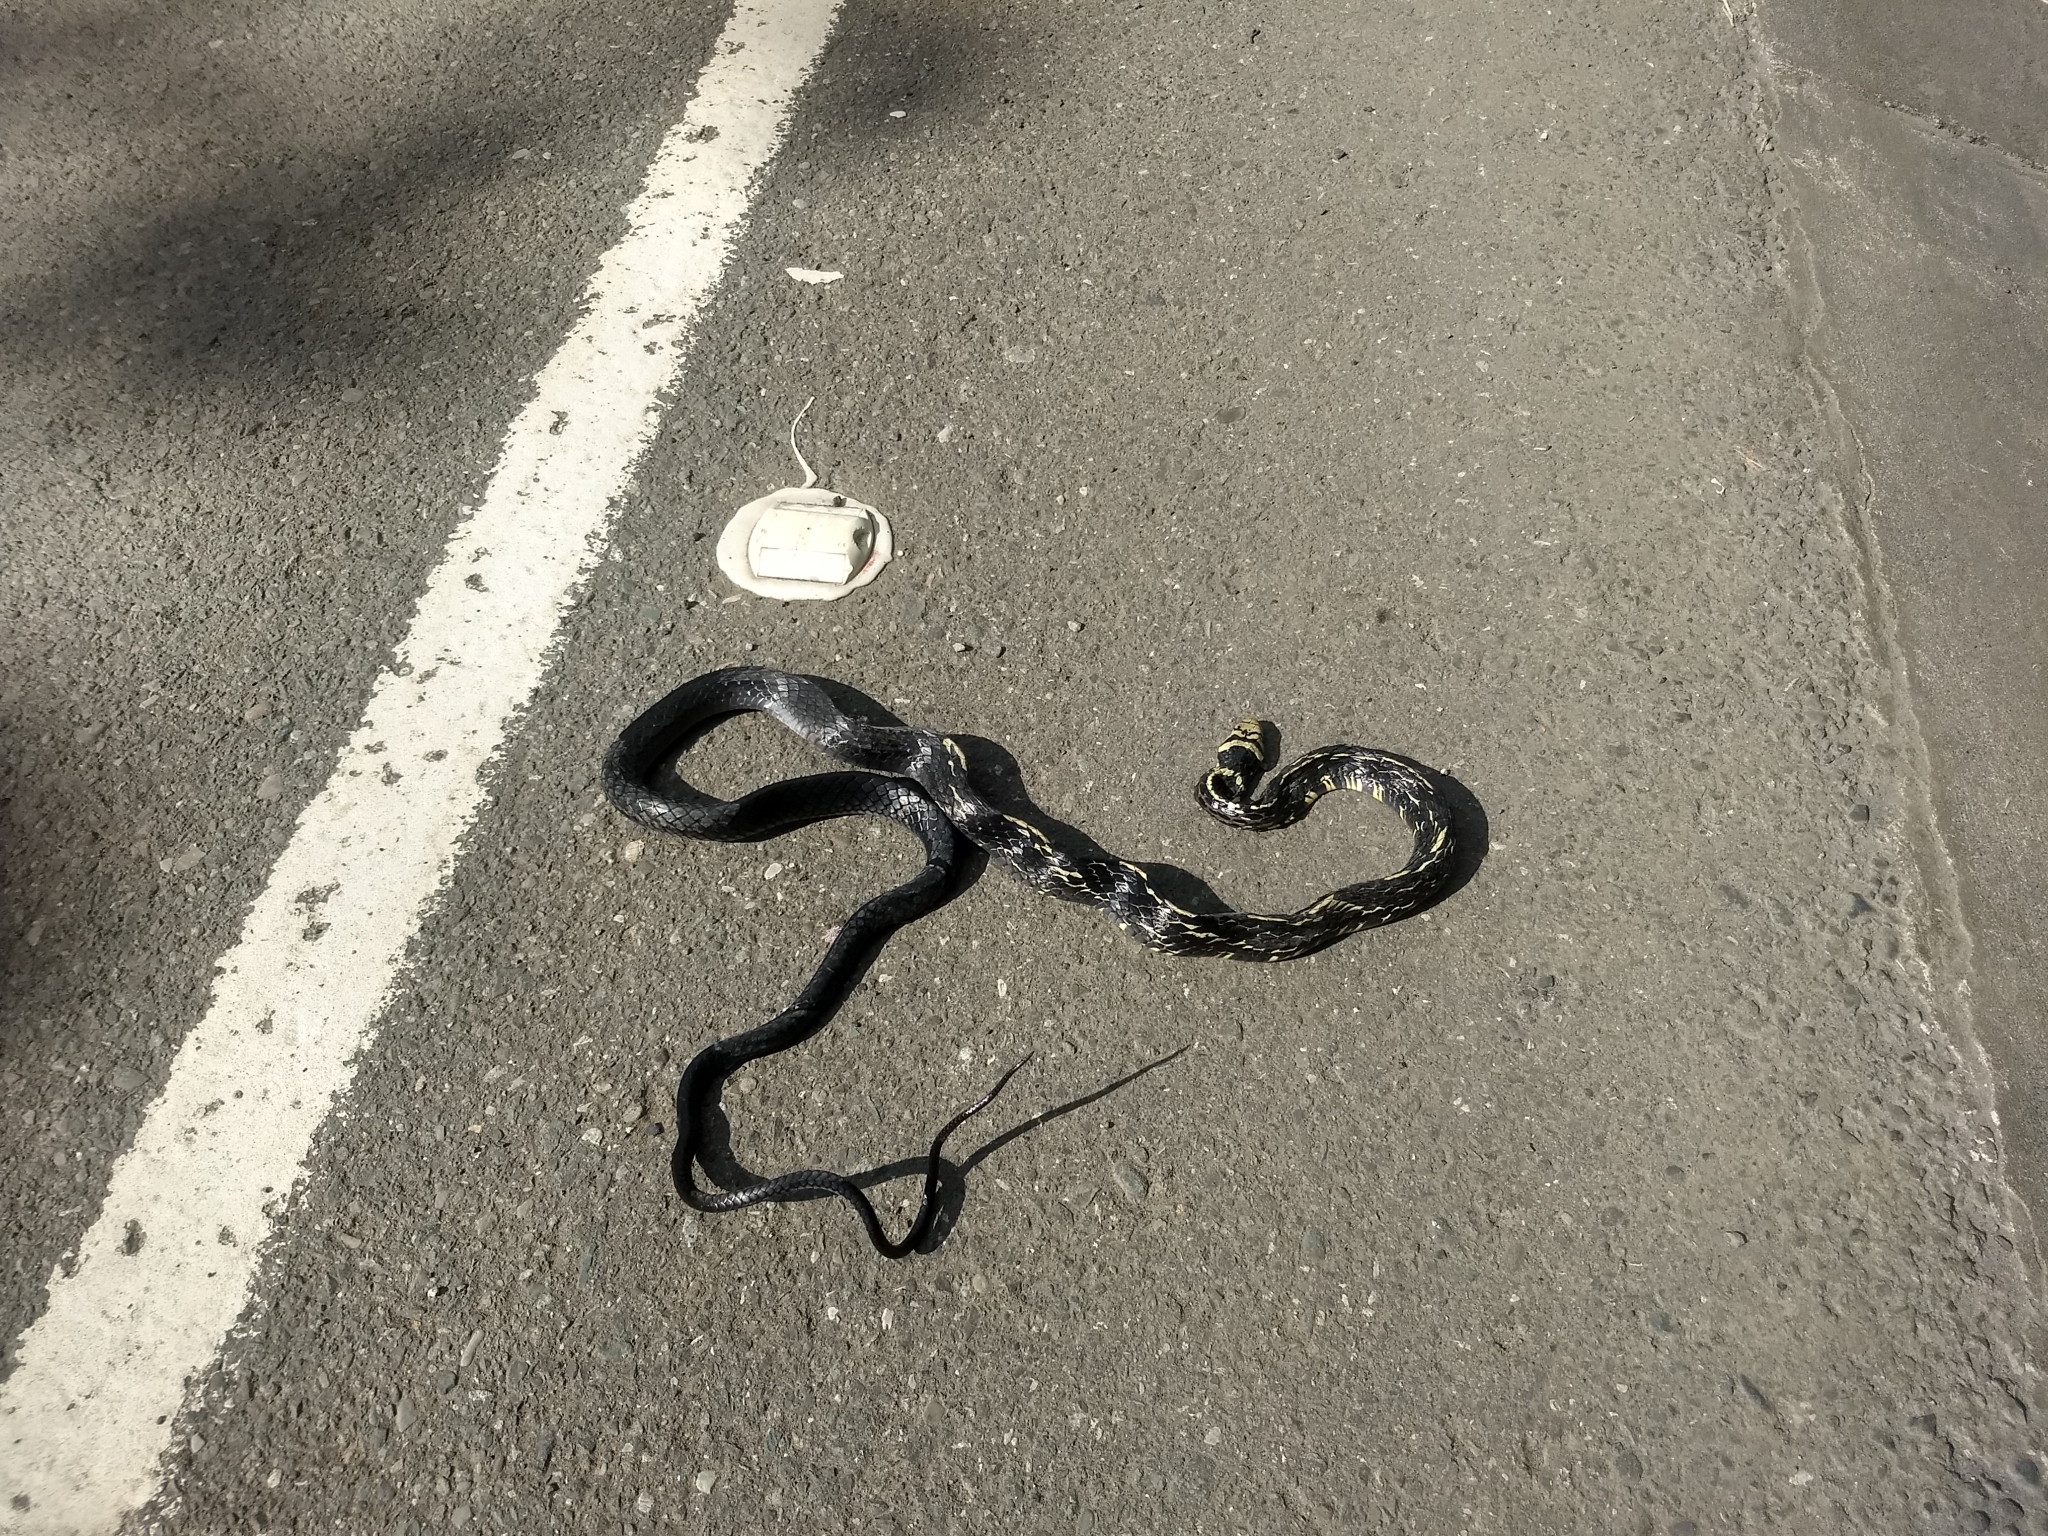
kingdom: Animalia
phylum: Chordata
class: Squamata
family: Colubridae
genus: Spilotes
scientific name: Spilotes pullatus
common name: Chicken snake
